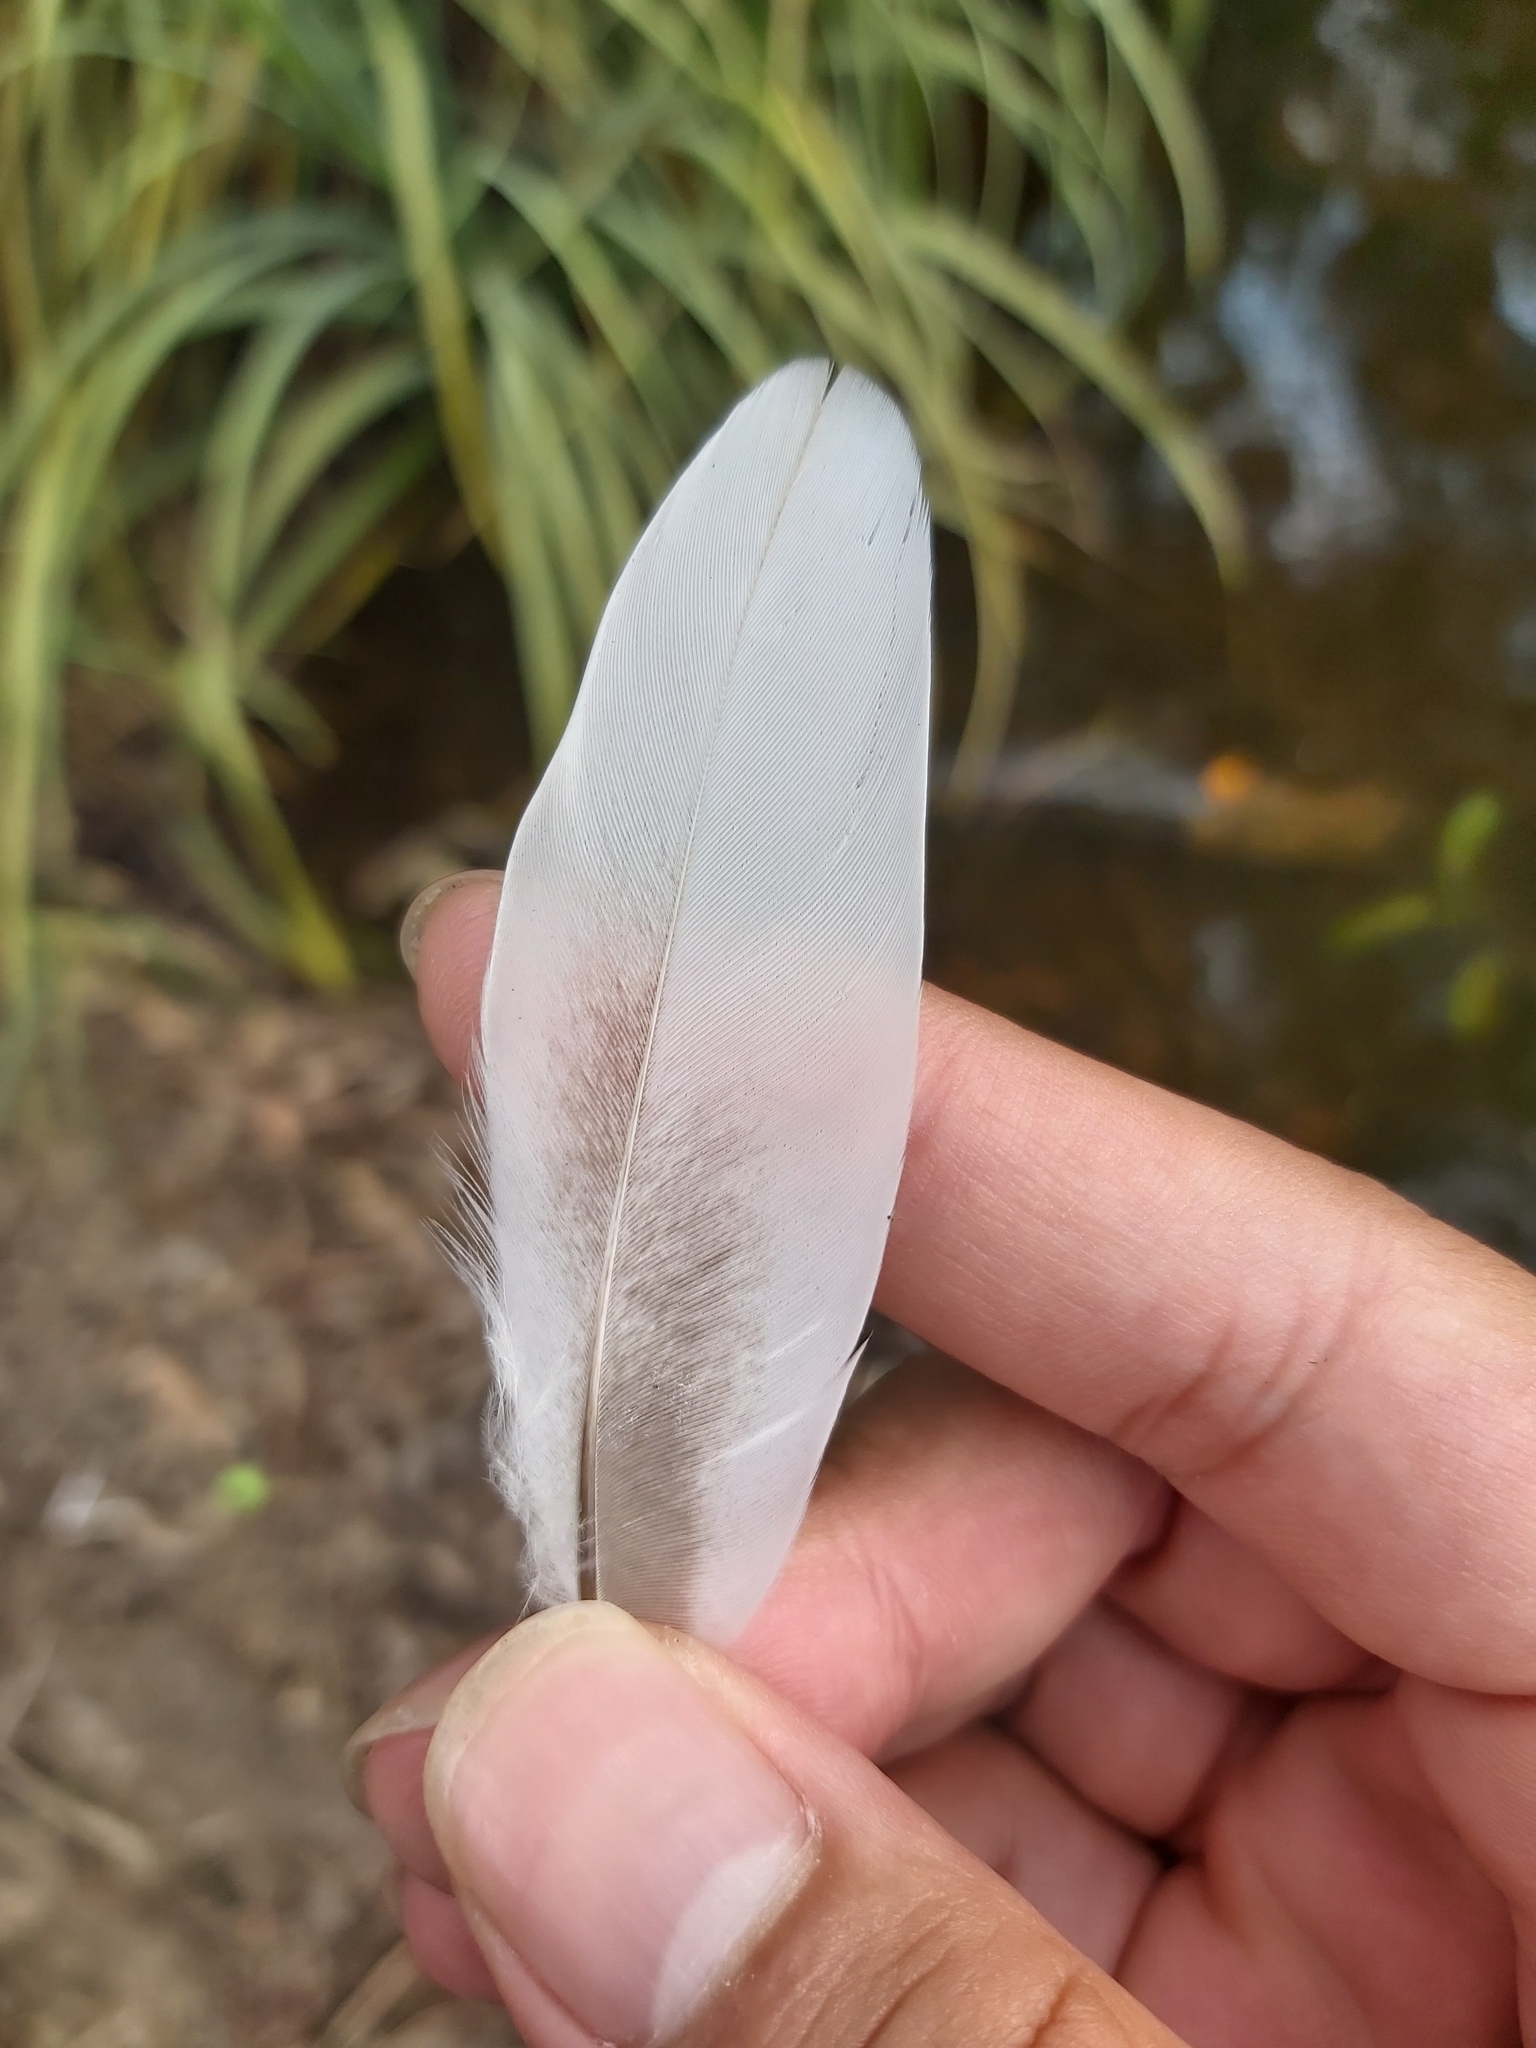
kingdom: Animalia
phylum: Chordata
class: Aves
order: Anseriformes
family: Anatidae
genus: Chenonetta
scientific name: Chenonetta jubata
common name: Maned duck
